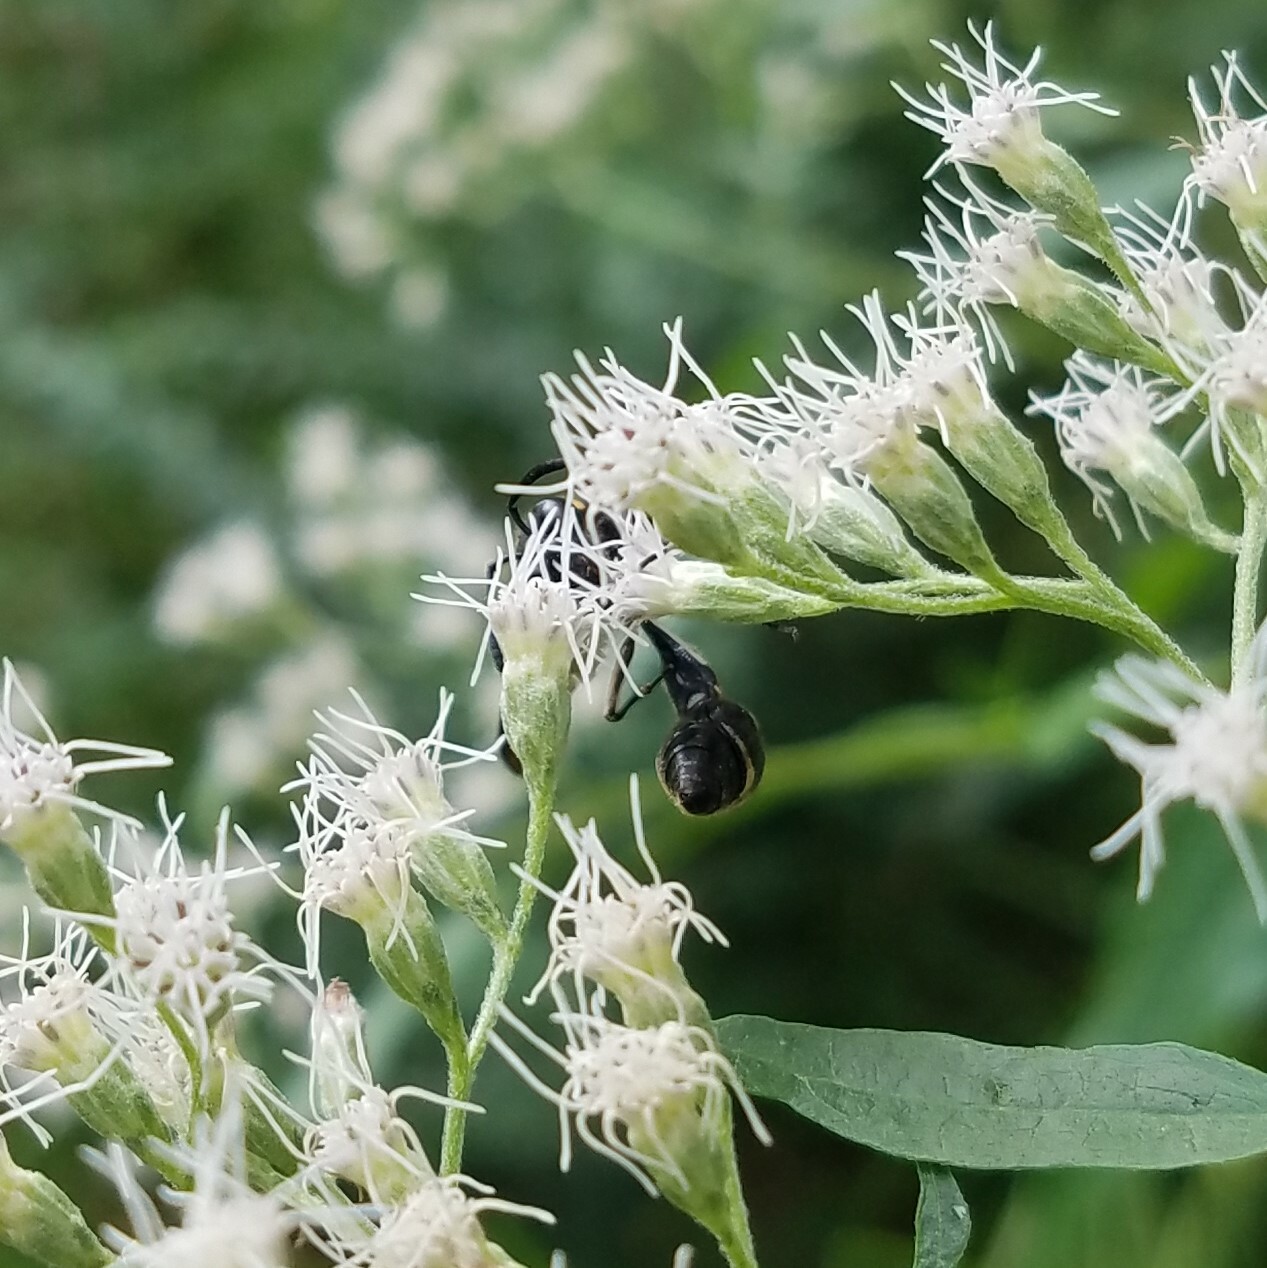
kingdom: Animalia
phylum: Arthropoda
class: Insecta
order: Hymenoptera
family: Vespidae
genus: Eumenes
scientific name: Eumenes fraternus
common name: Fraternal potter wasp
